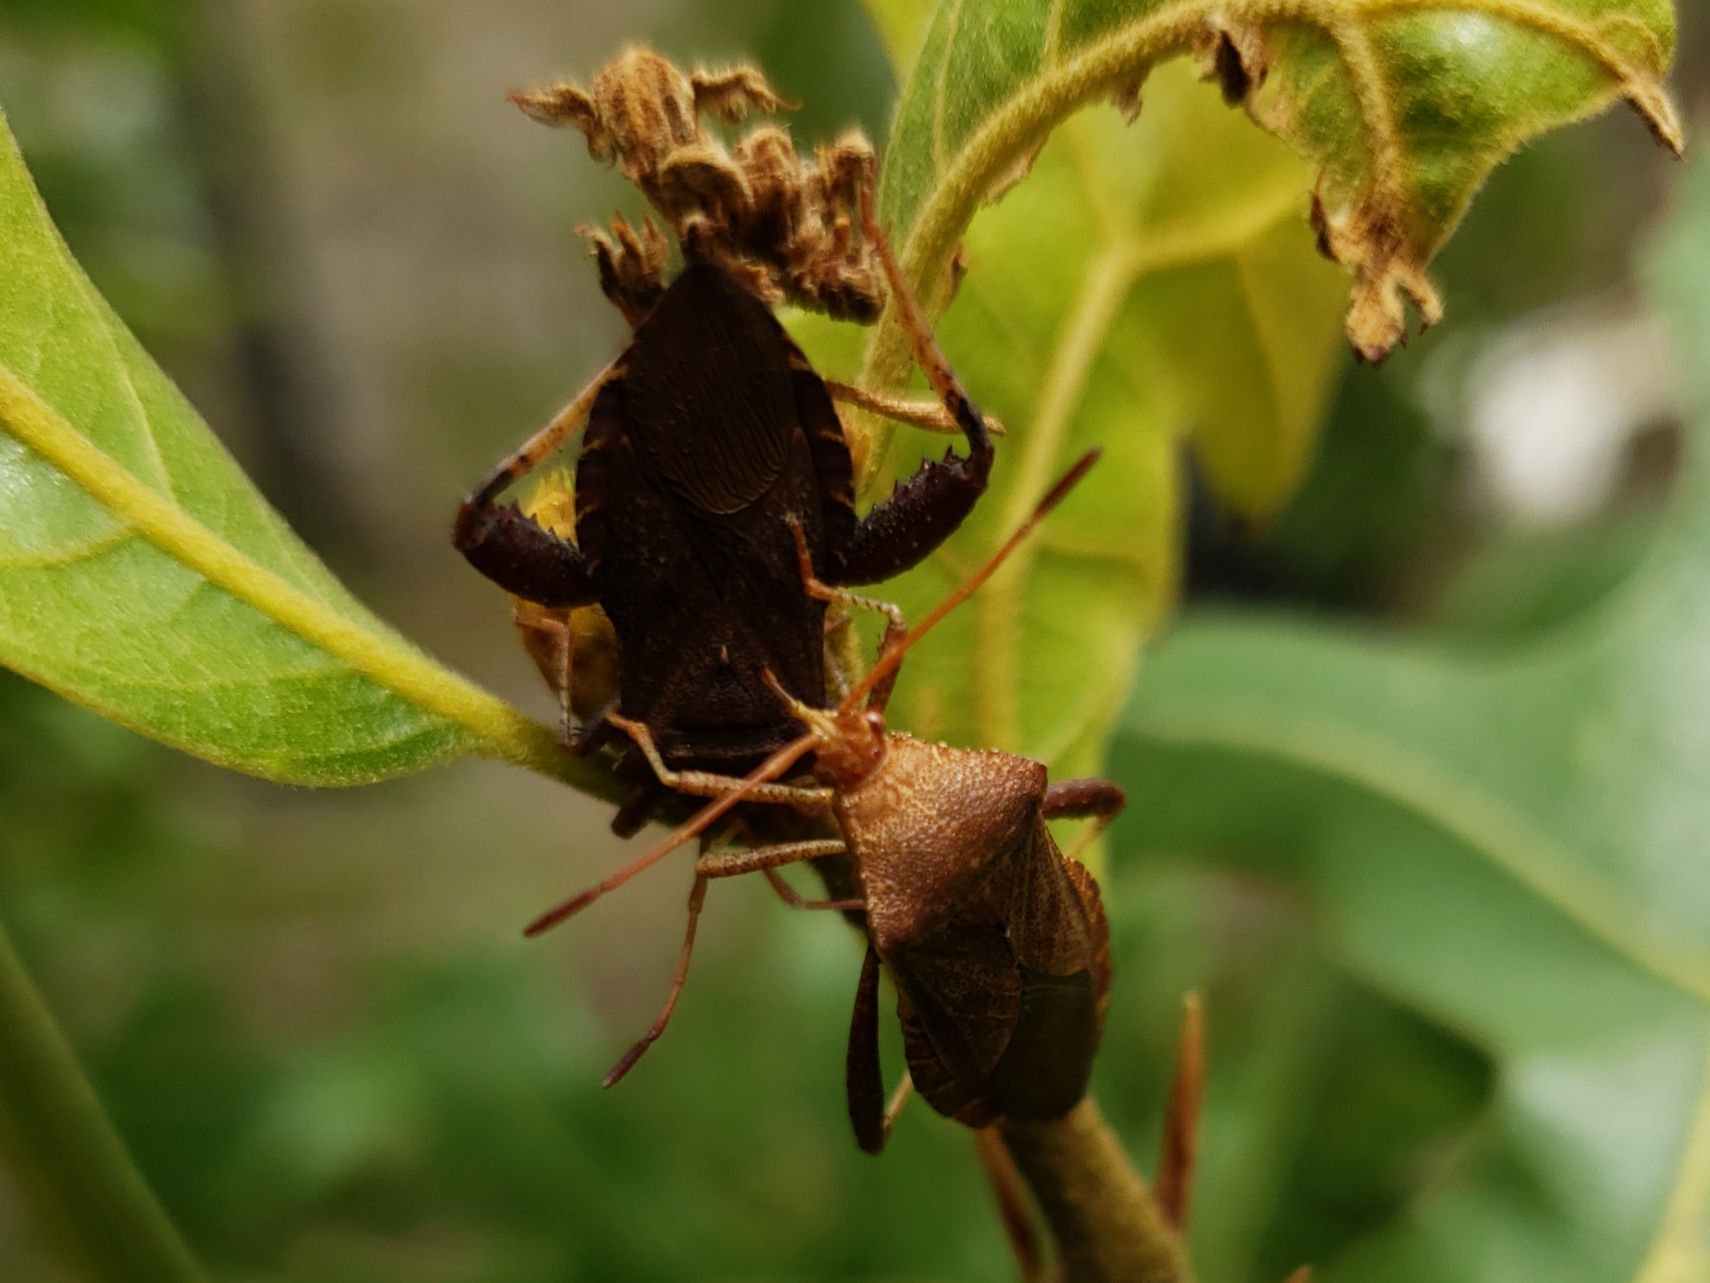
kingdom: Animalia
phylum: Arthropoda
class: Insecta
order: Hemiptera
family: Coreidae
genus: Euthochtha
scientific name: Euthochtha galeator
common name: Helmeted squash bug
